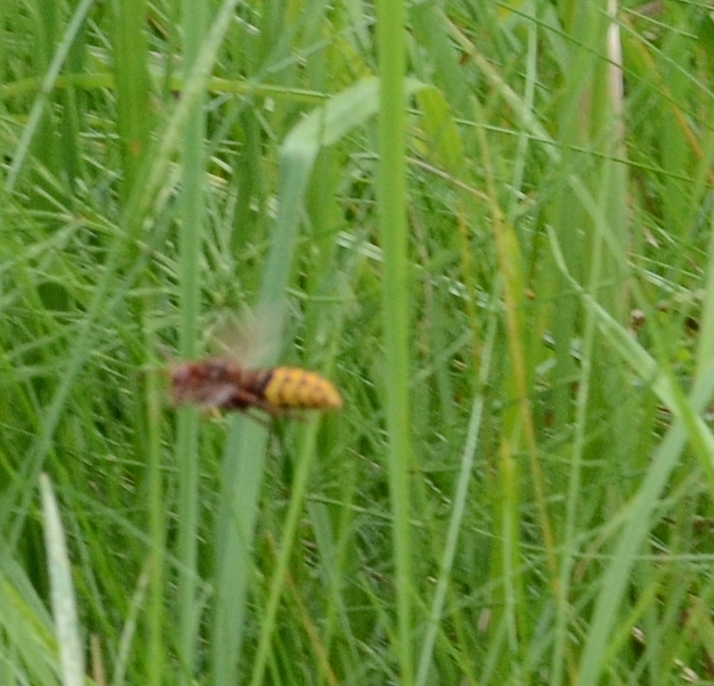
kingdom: Animalia
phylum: Arthropoda
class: Insecta
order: Hymenoptera
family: Vespidae
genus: Vespa
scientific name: Vespa crabro
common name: Hornet
